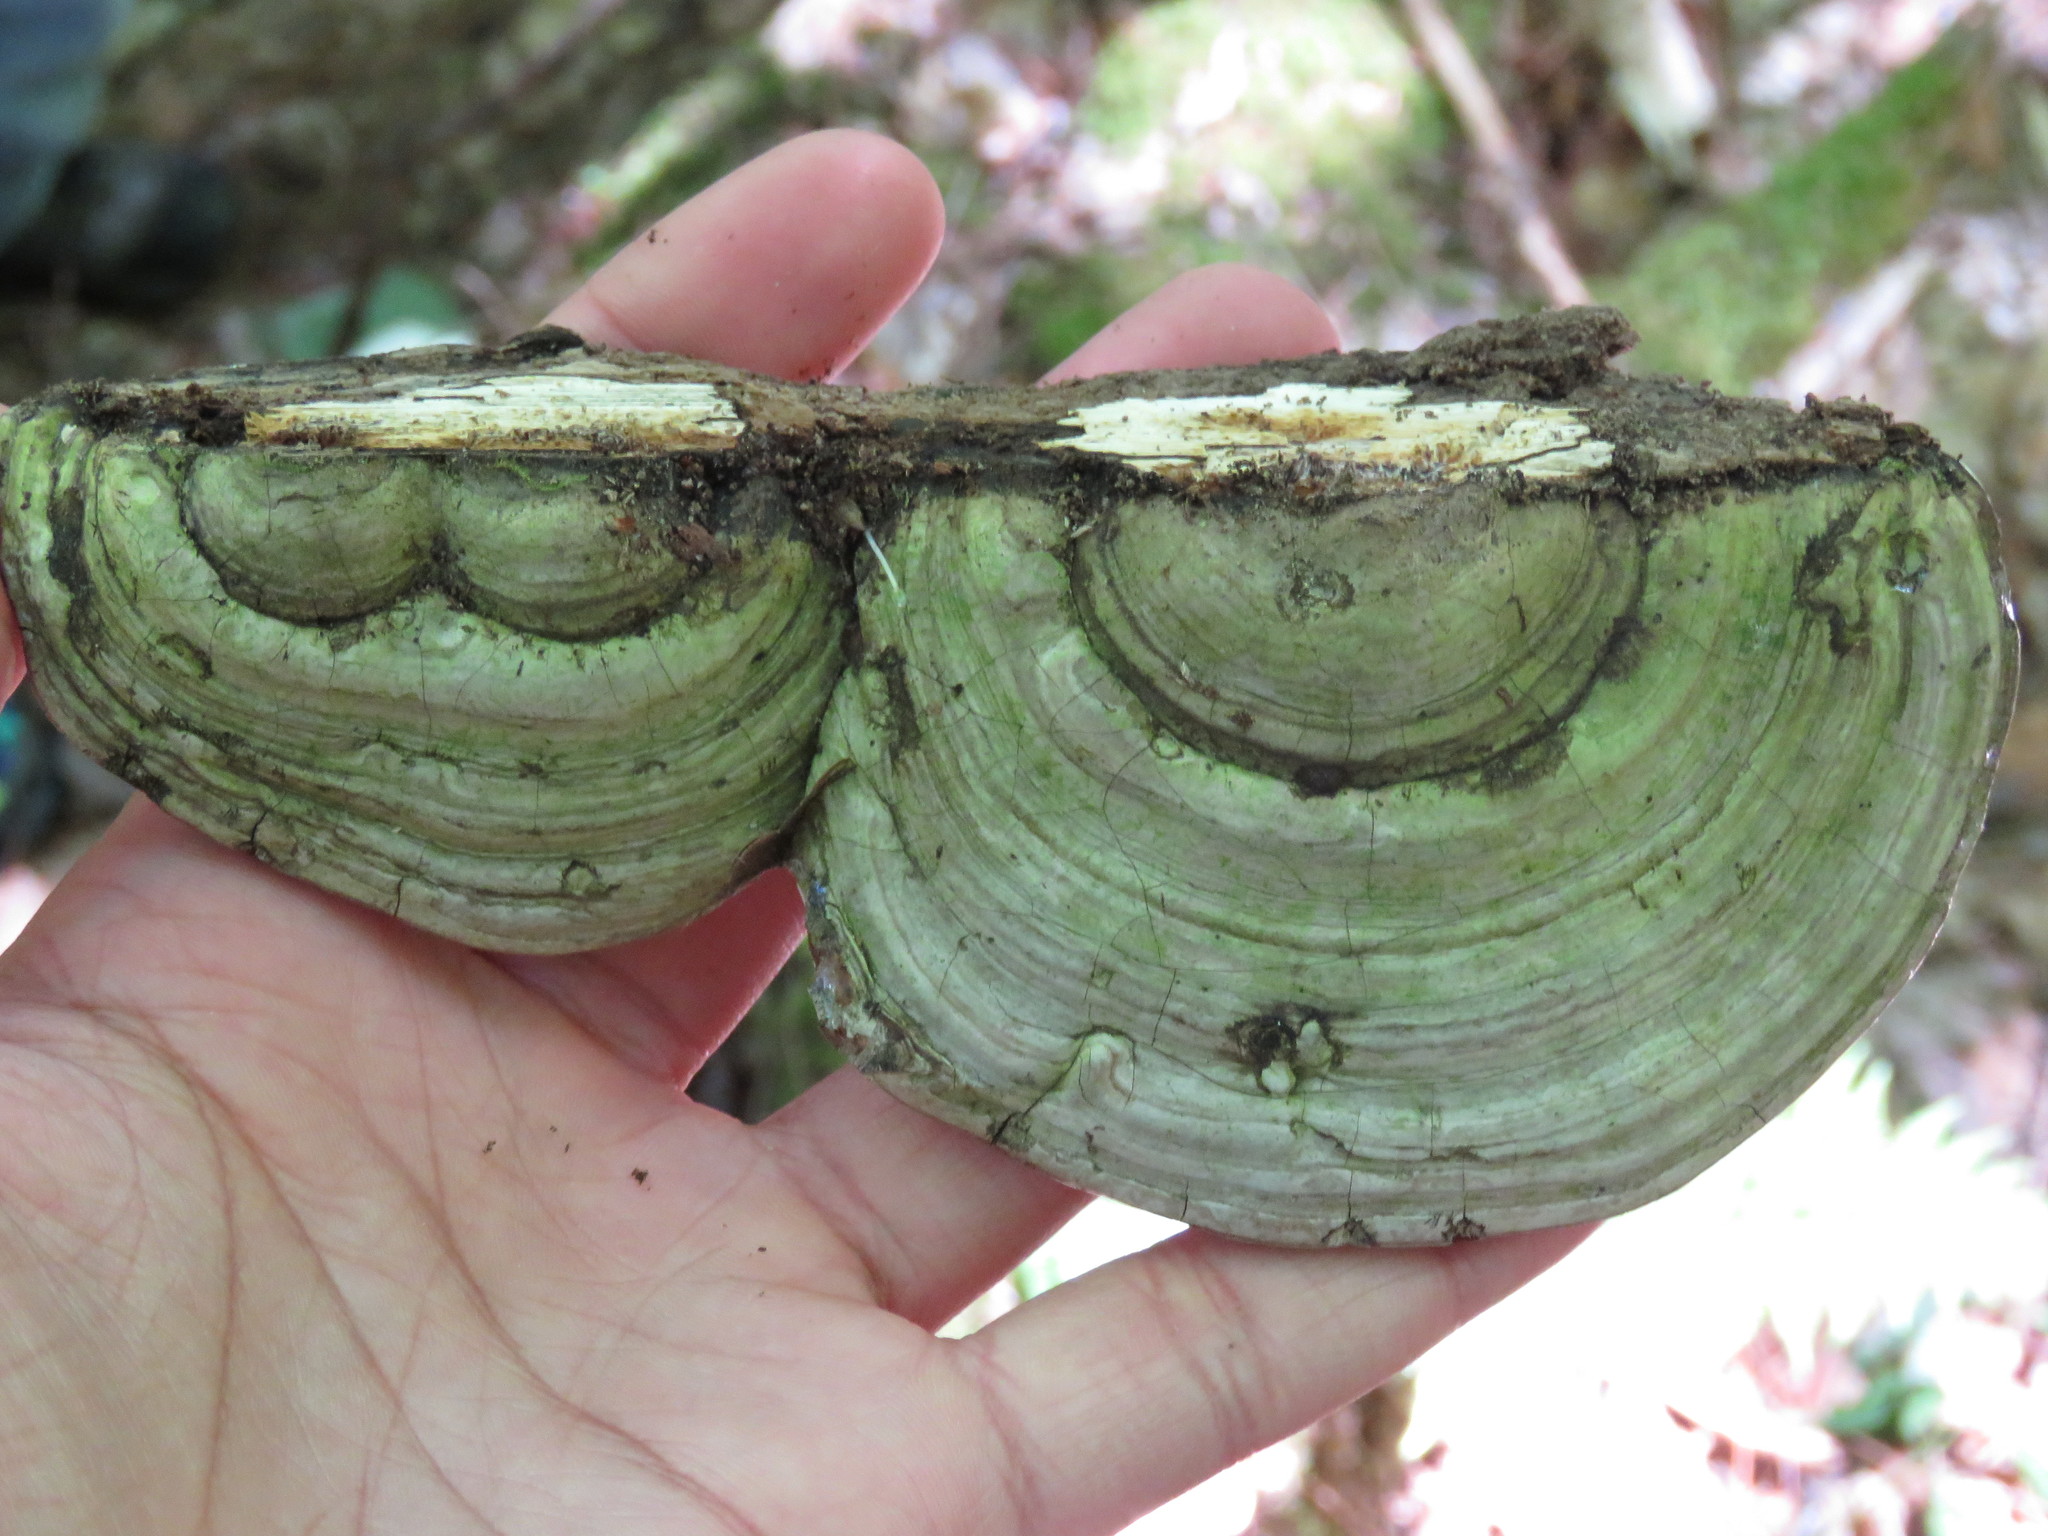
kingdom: Fungi
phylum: Basidiomycota
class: Agaricomycetes
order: Polyporales
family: Polyporaceae
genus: Ganoderma
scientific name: Ganoderma applanatum
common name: Artist's bracket
